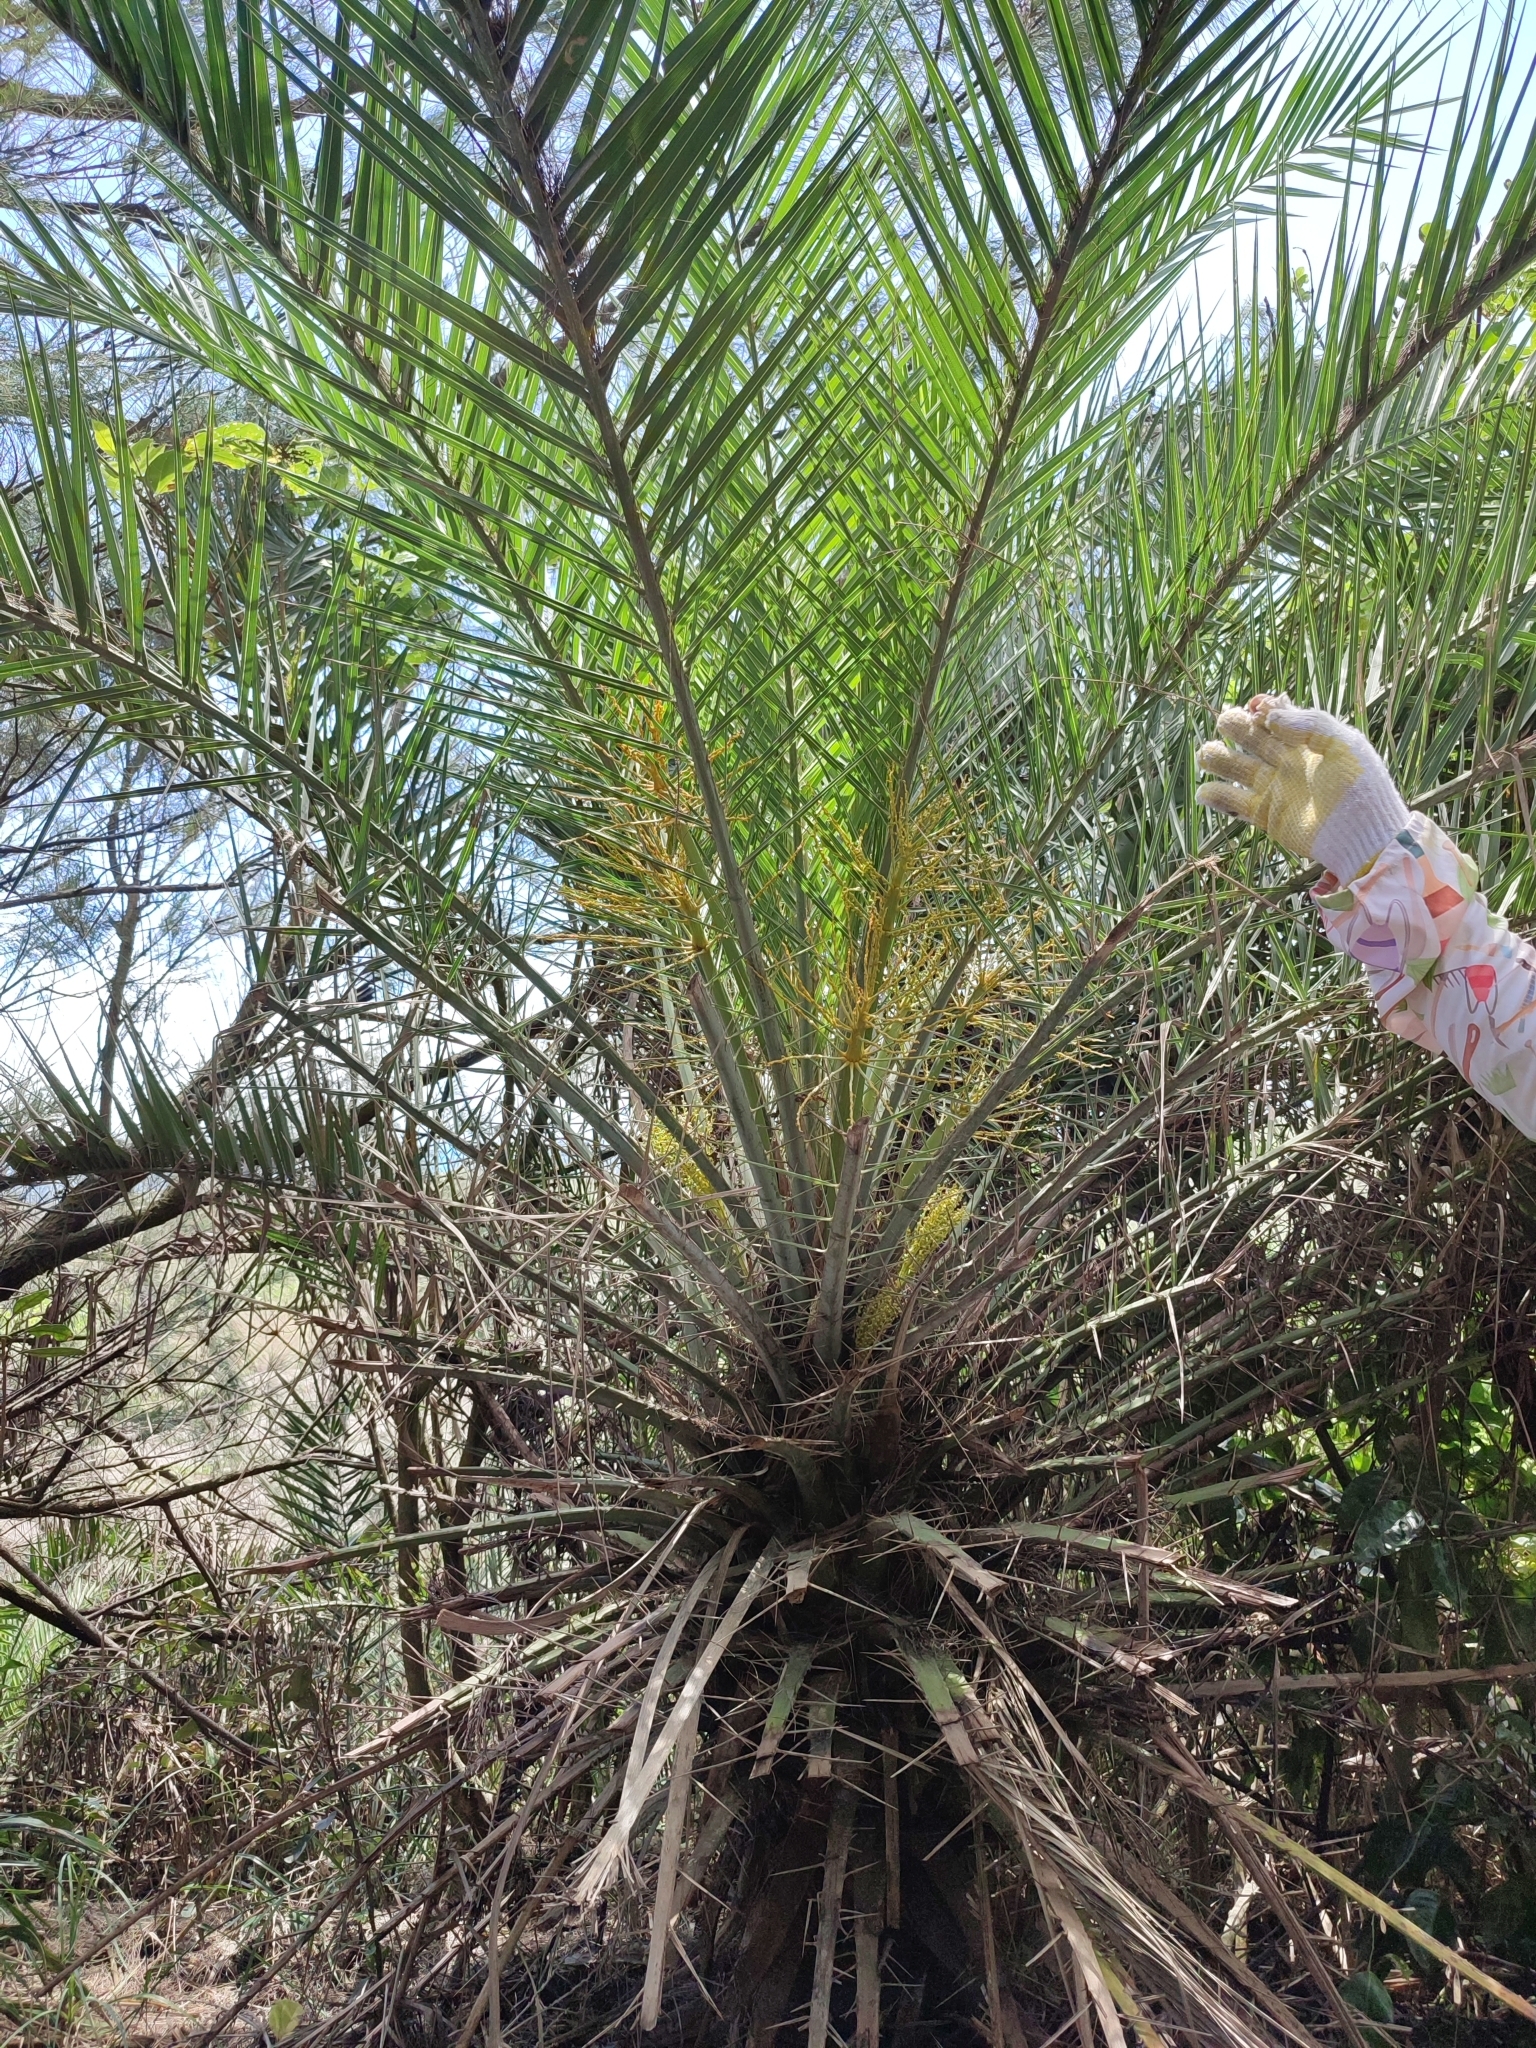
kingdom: Plantae
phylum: Tracheophyta
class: Liliopsida
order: Arecales
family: Arecaceae
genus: Phoenix
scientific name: Phoenix loureiroi
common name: Loureiro's palm
